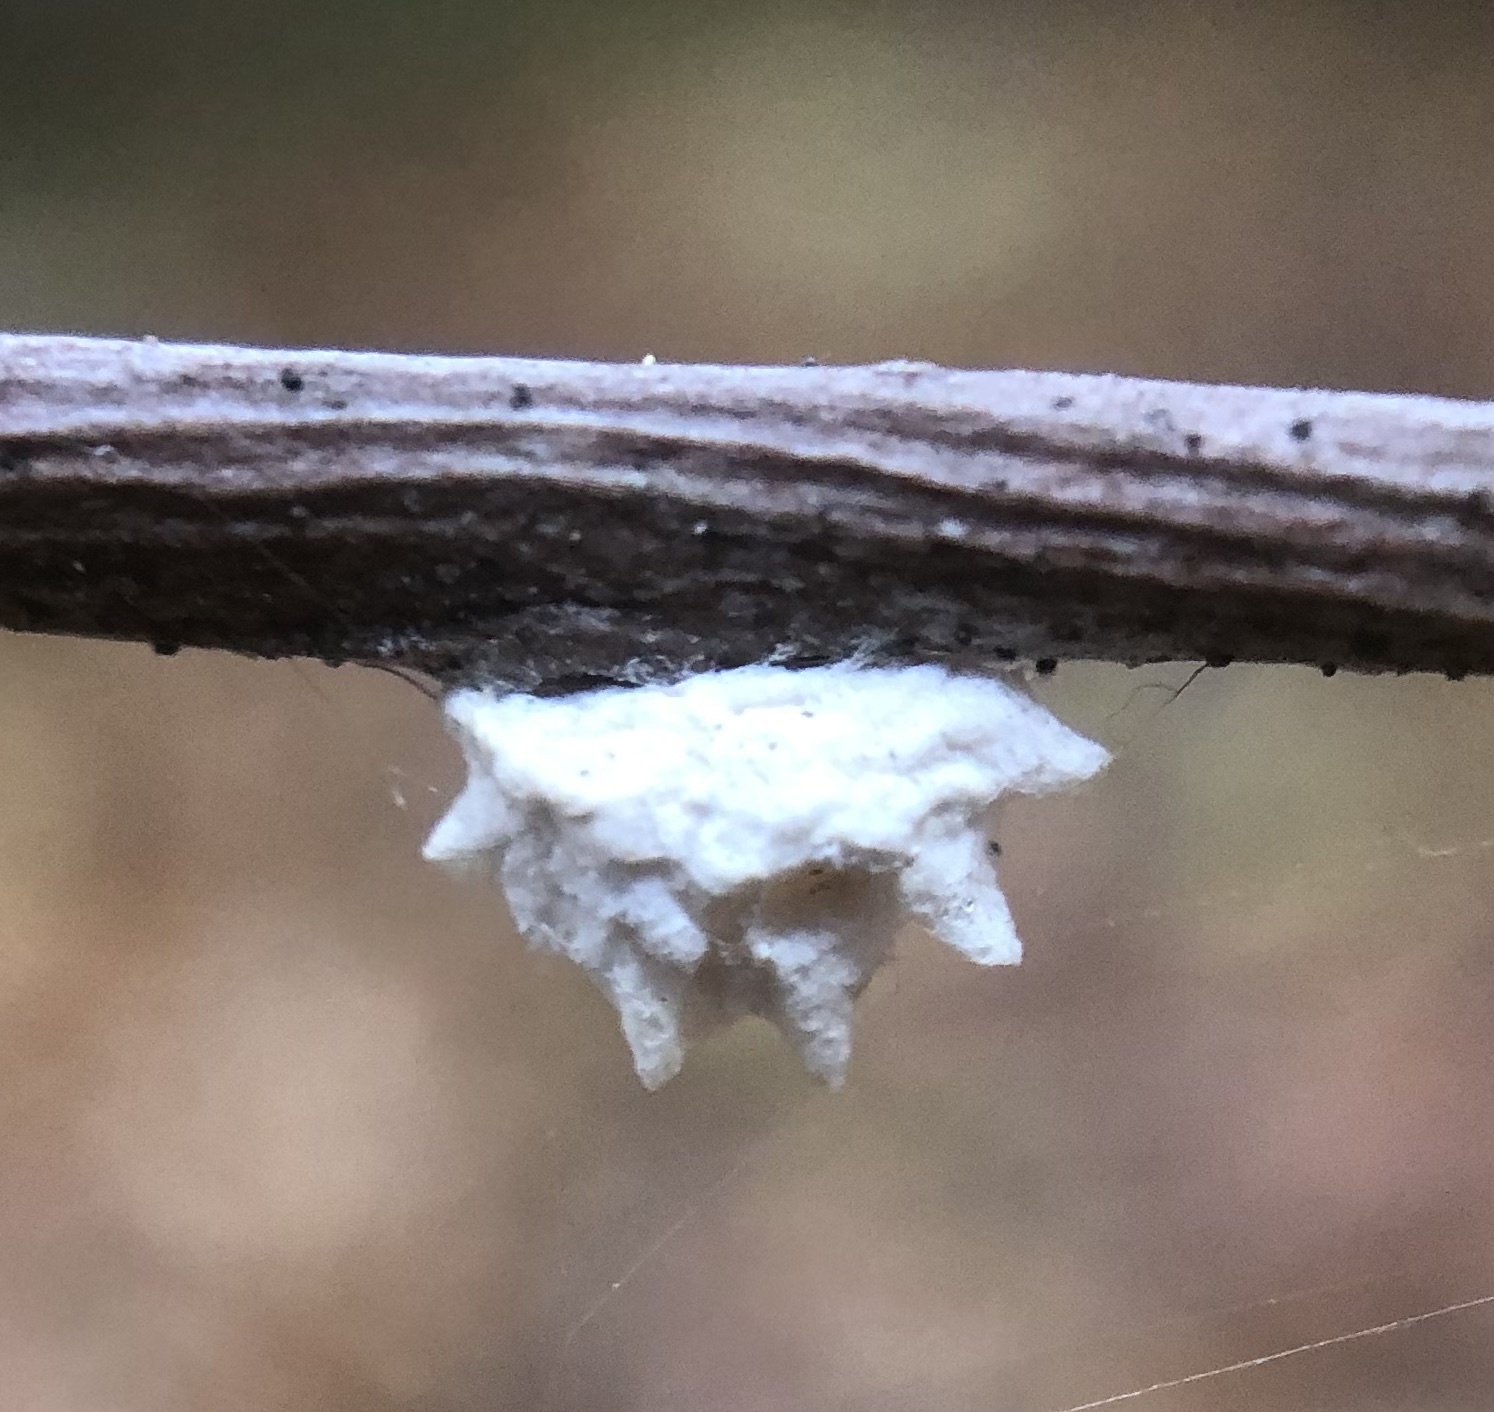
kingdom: Animalia
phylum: Arthropoda
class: Insecta
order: Lepidoptera
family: Epipyropidae
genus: Fulgoraecia
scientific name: Fulgoraecia exigua
